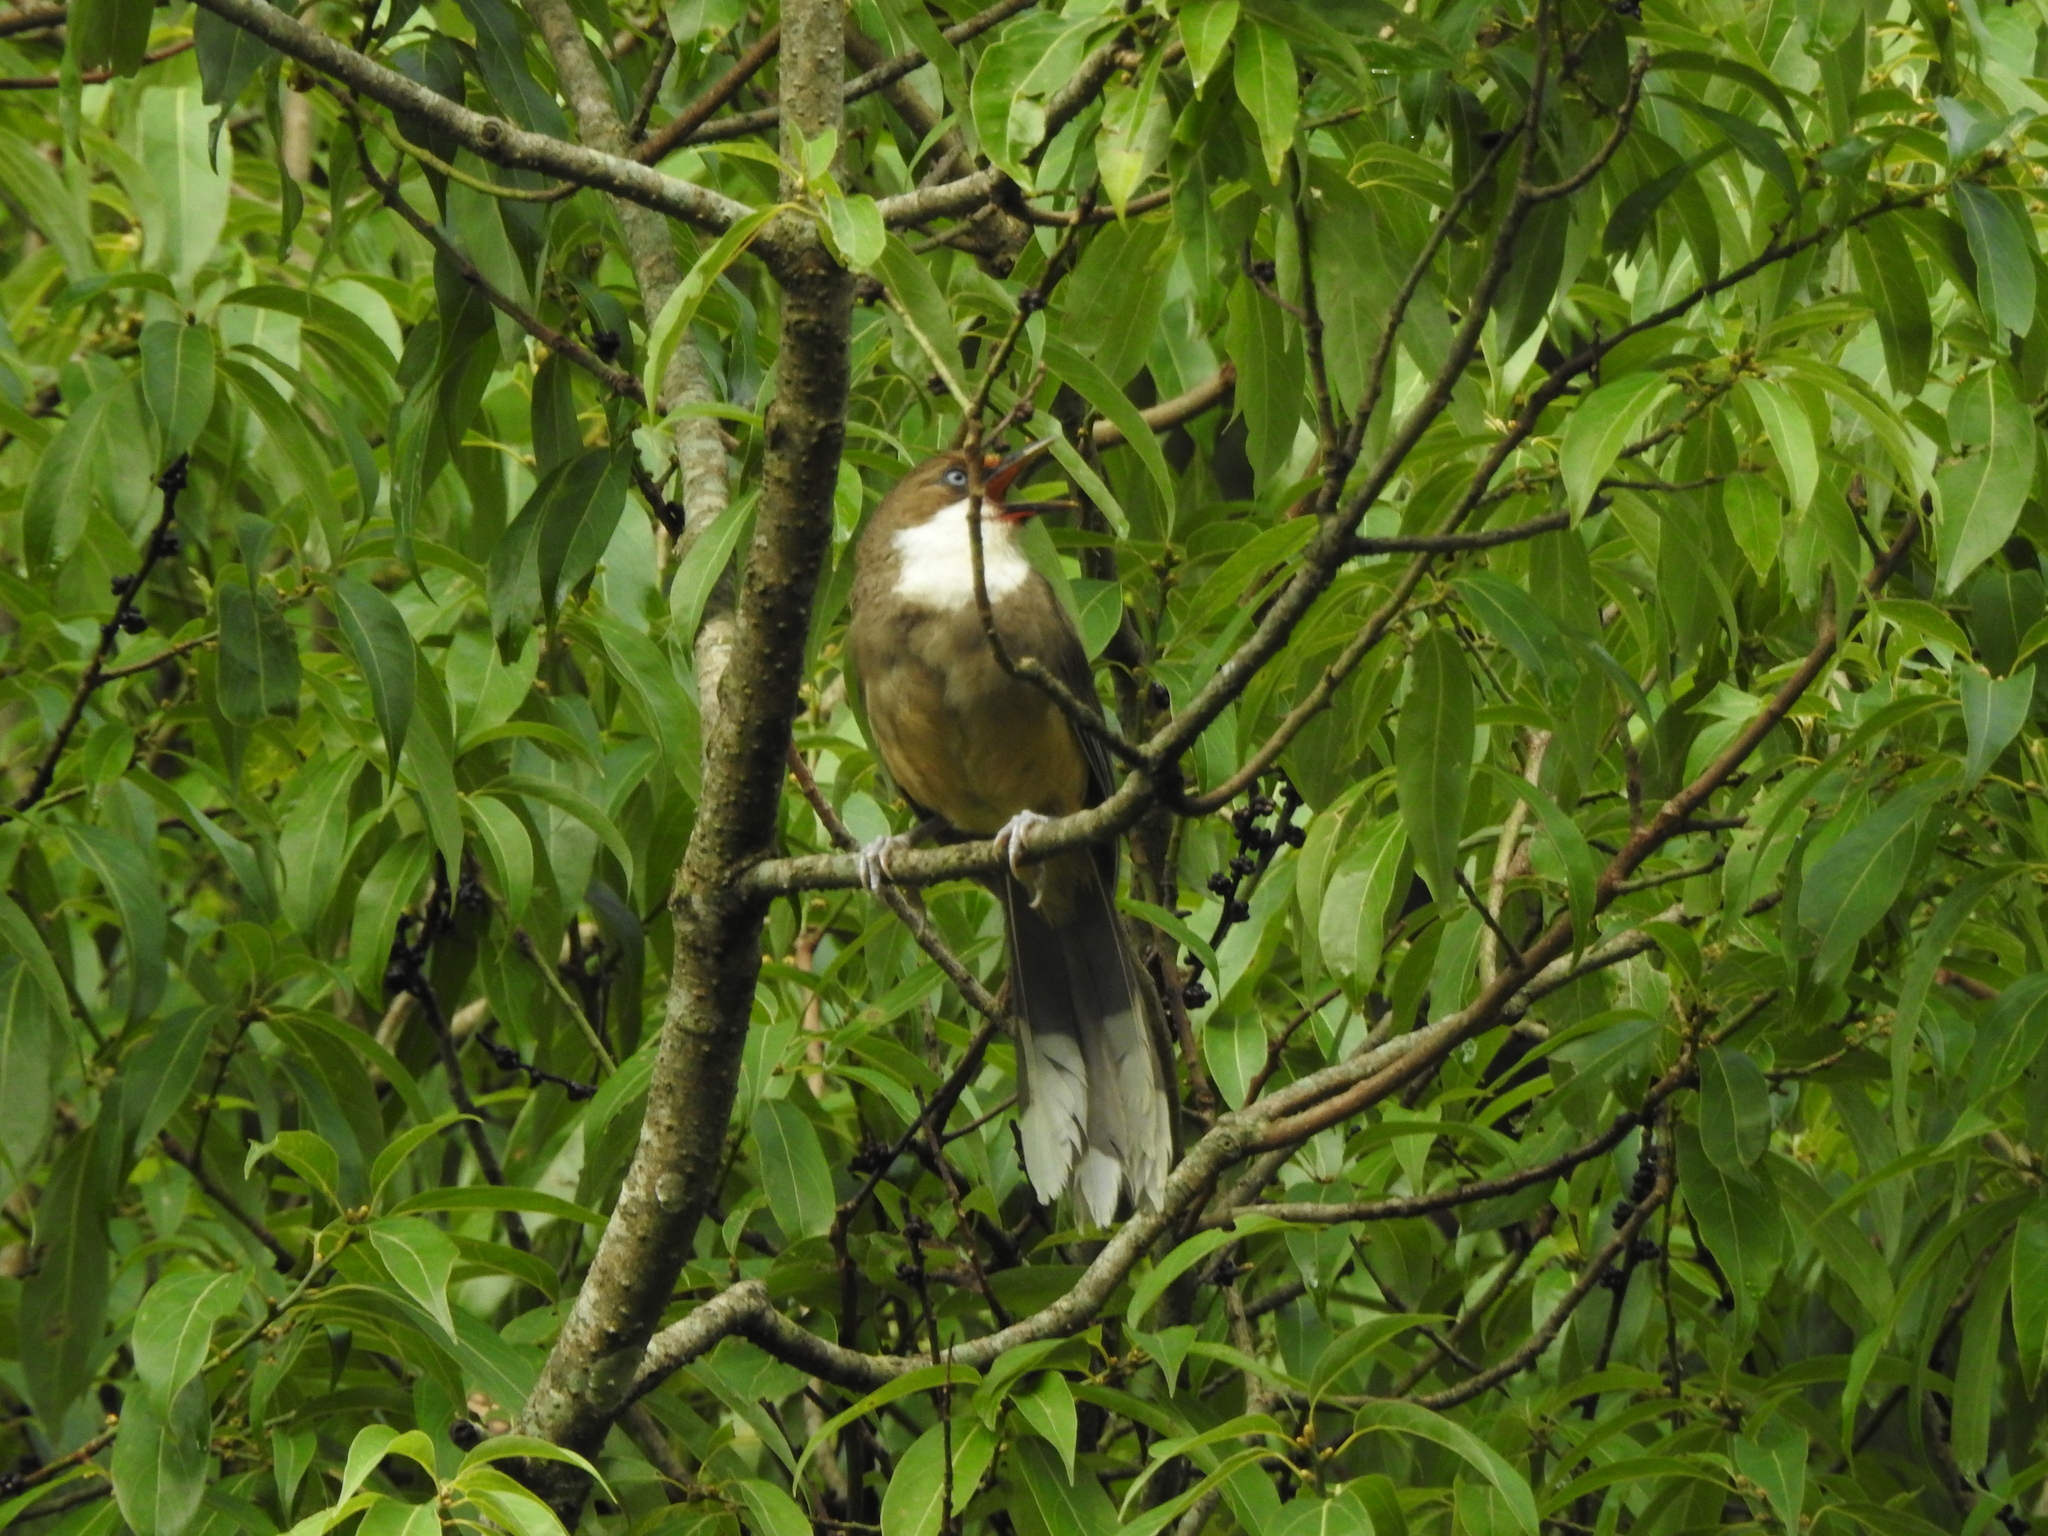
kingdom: Animalia
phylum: Chordata
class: Aves
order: Passeriformes
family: Leiothrichidae
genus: Garrulax
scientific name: Garrulax albogularis
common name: White-throated laughingthrush
